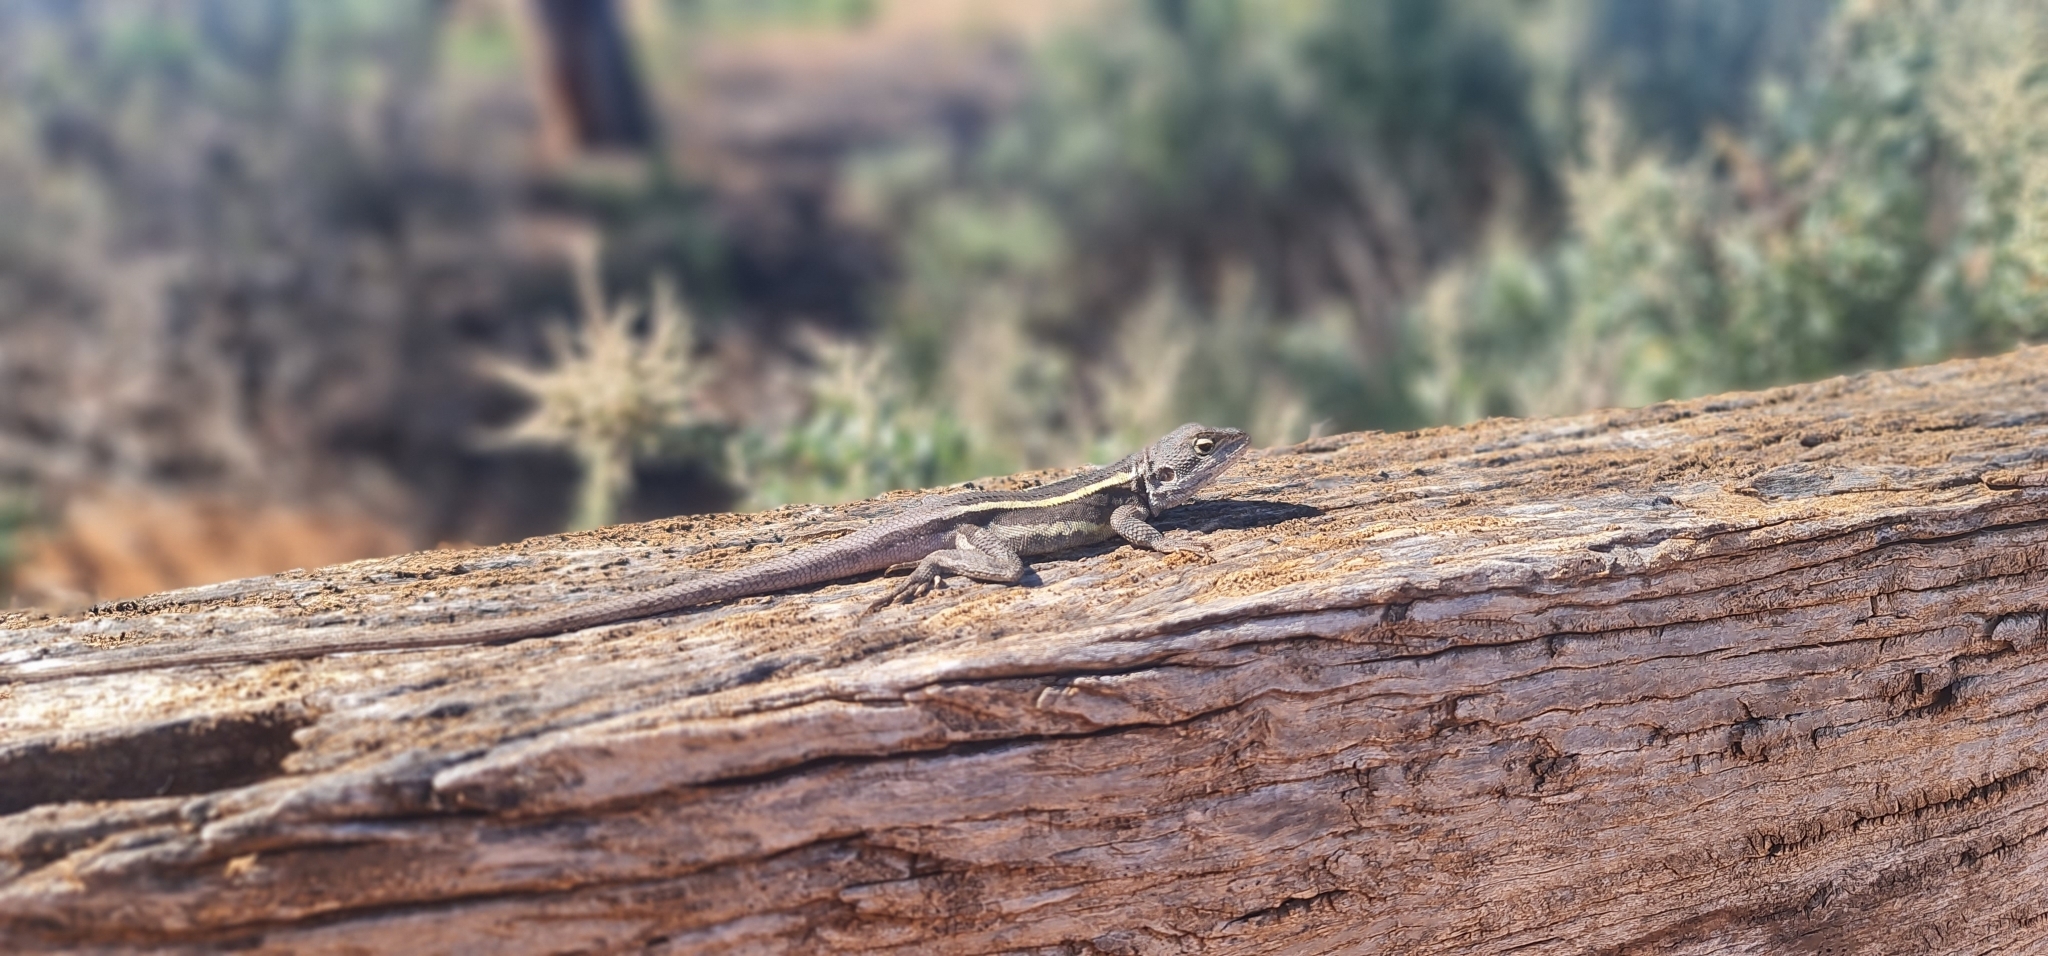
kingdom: Animalia
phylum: Chordata
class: Squamata
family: Agamidae
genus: Diporiphora
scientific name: Diporiphora nobbi
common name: Nobbi
